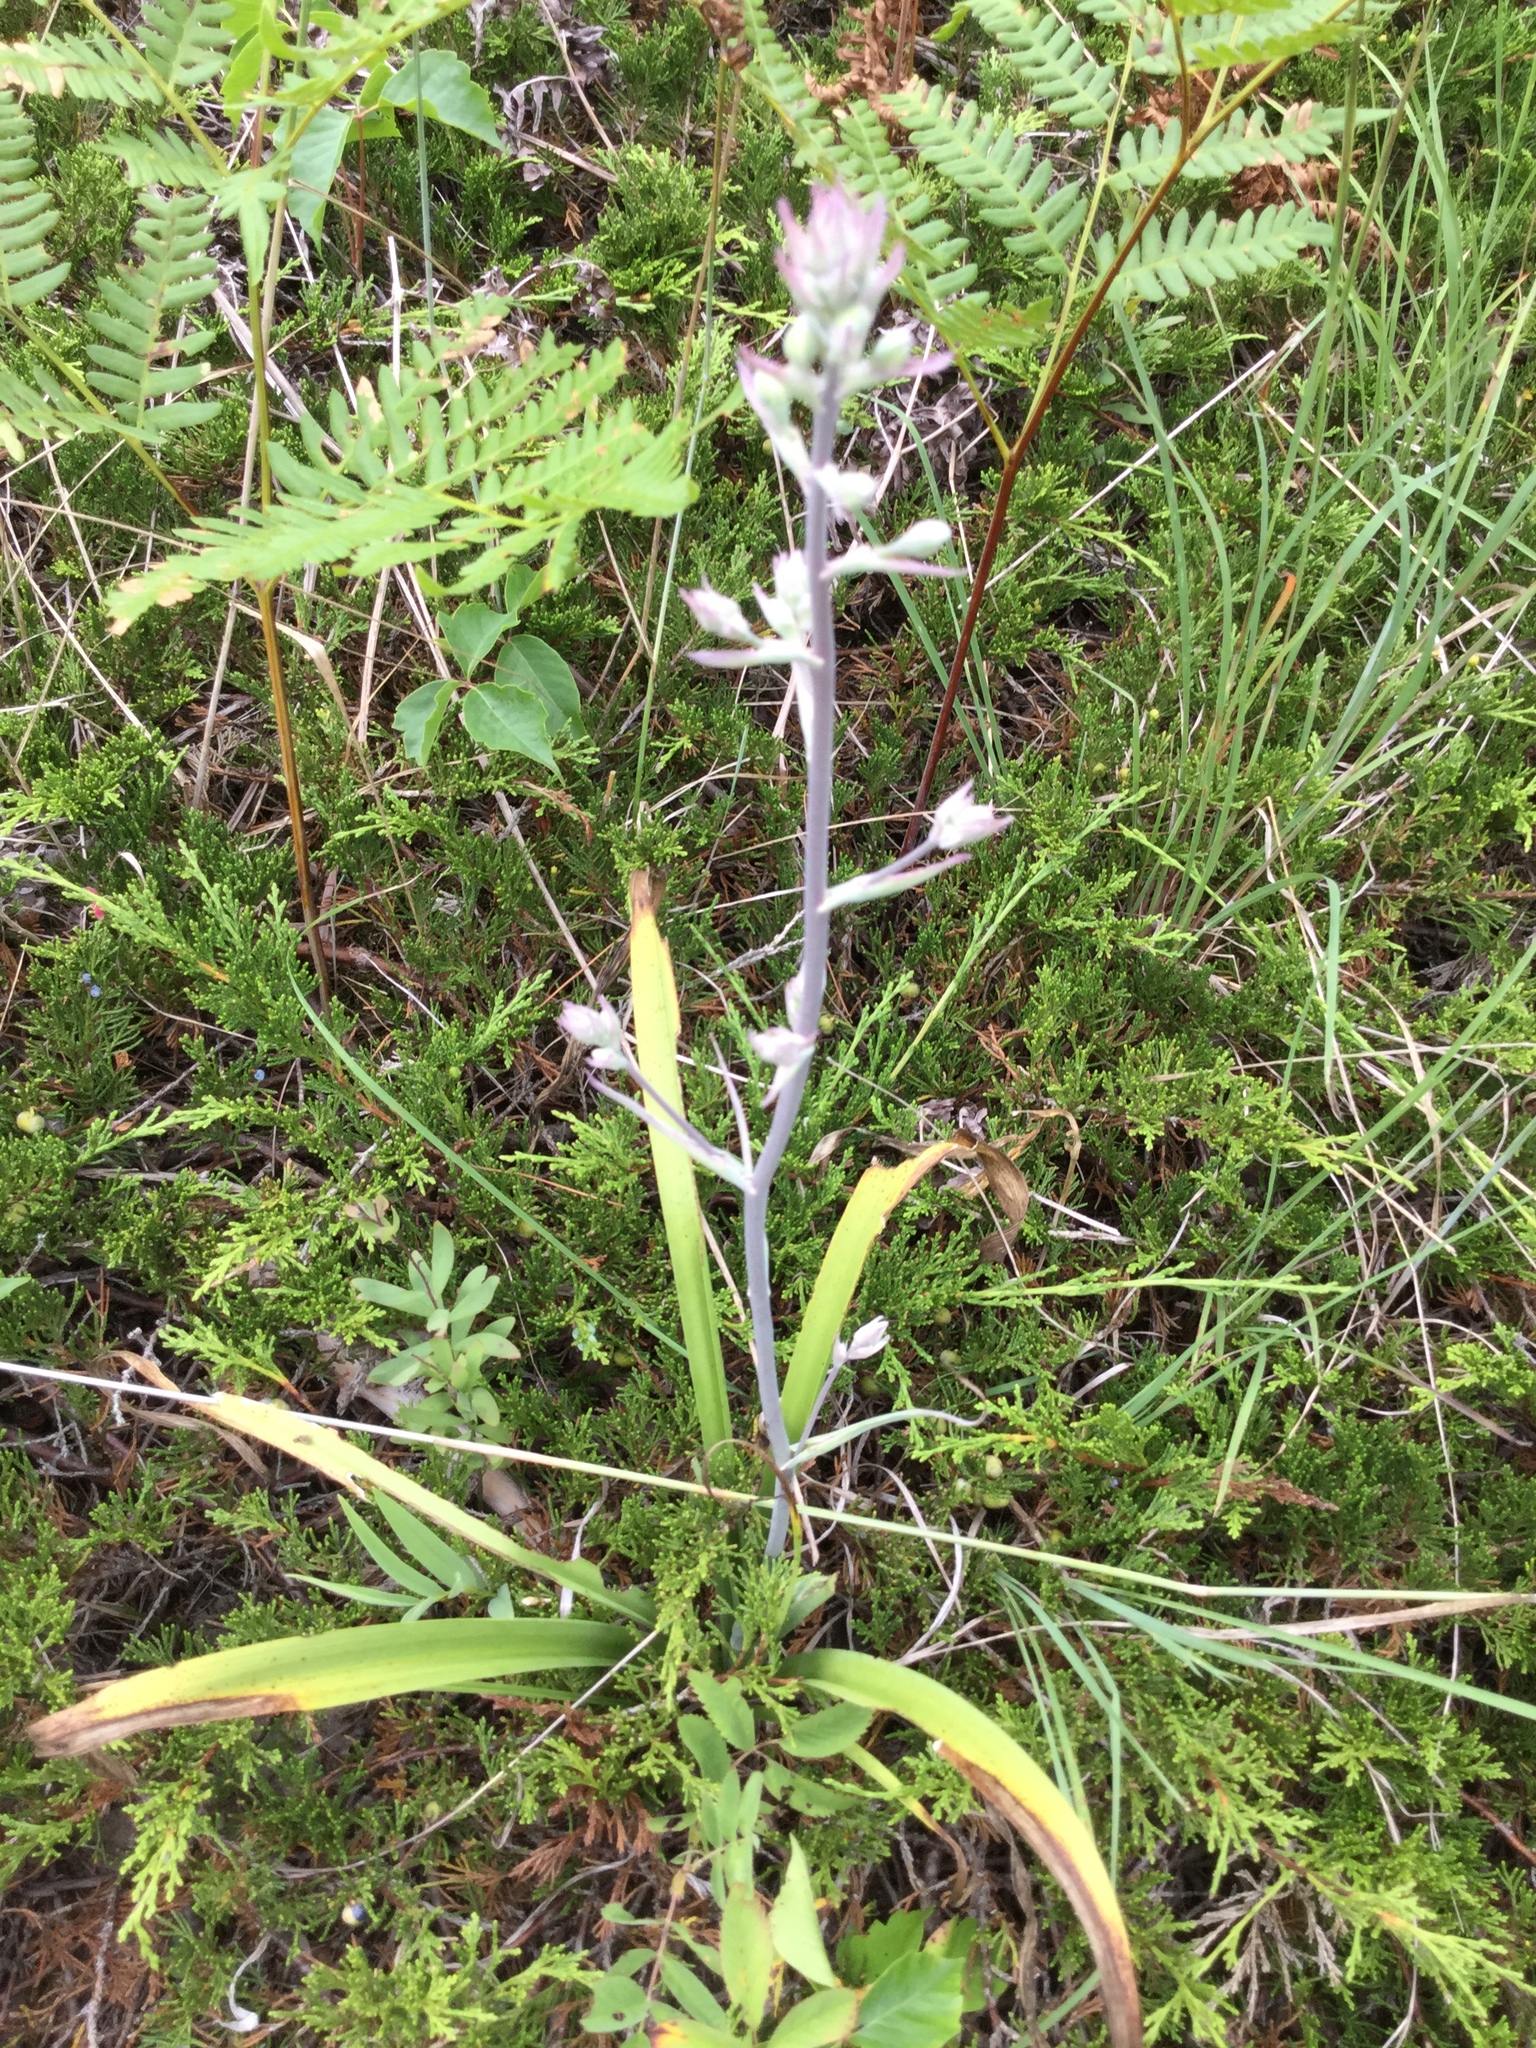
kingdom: Plantae
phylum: Tracheophyta
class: Liliopsida
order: Liliales
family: Melanthiaceae
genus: Anticlea
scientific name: Anticlea elegans
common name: Mountain death camas
